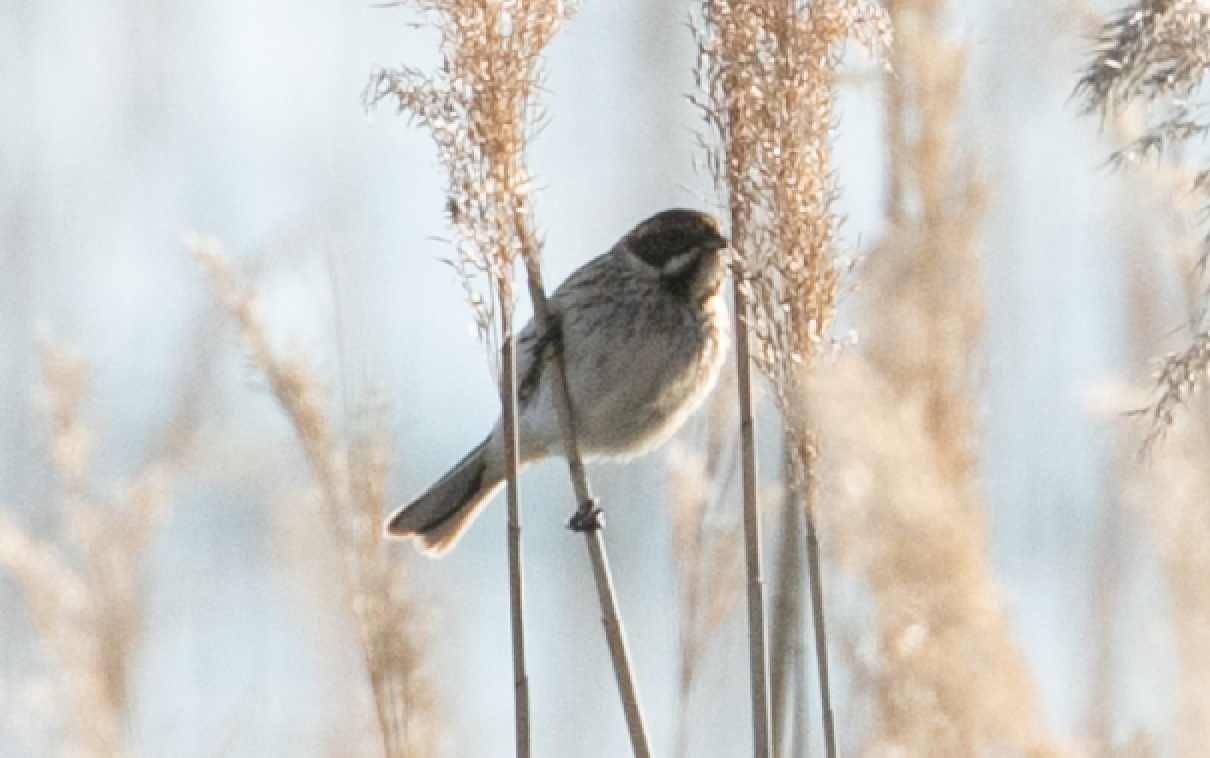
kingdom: Animalia
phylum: Chordata
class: Aves
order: Passeriformes
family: Emberizidae
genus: Emberiza
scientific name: Emberiza schoeniclus
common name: Reed bunting
